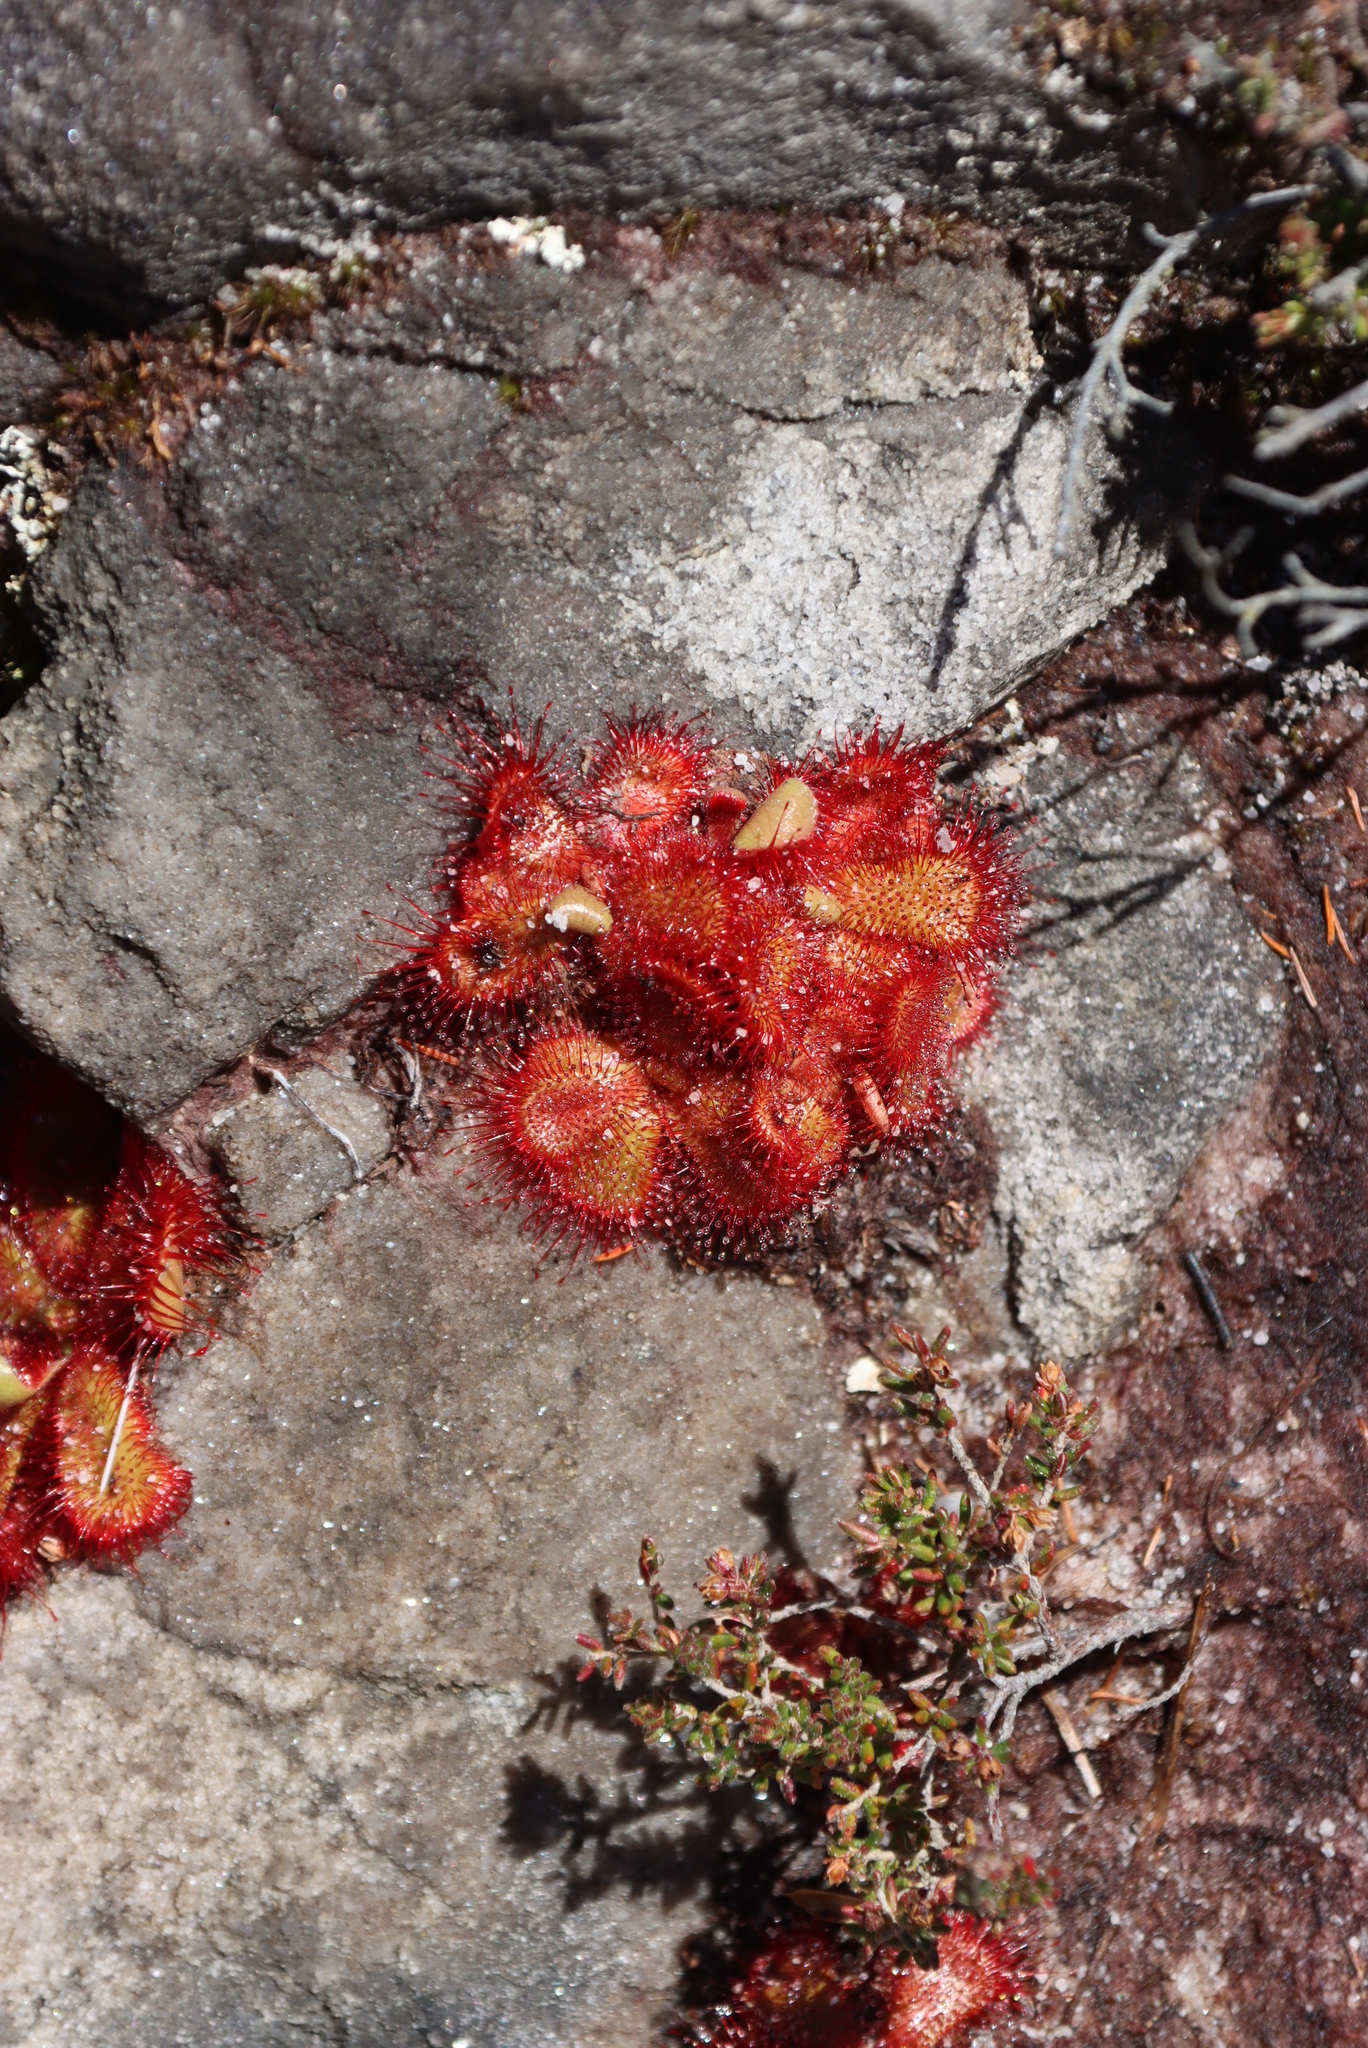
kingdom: Plantae
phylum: Tracheophyta
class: Magnoliopsida
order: Caryophyllales
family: Droseraceae
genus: Drosera
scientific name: Drosera cuneifolia
